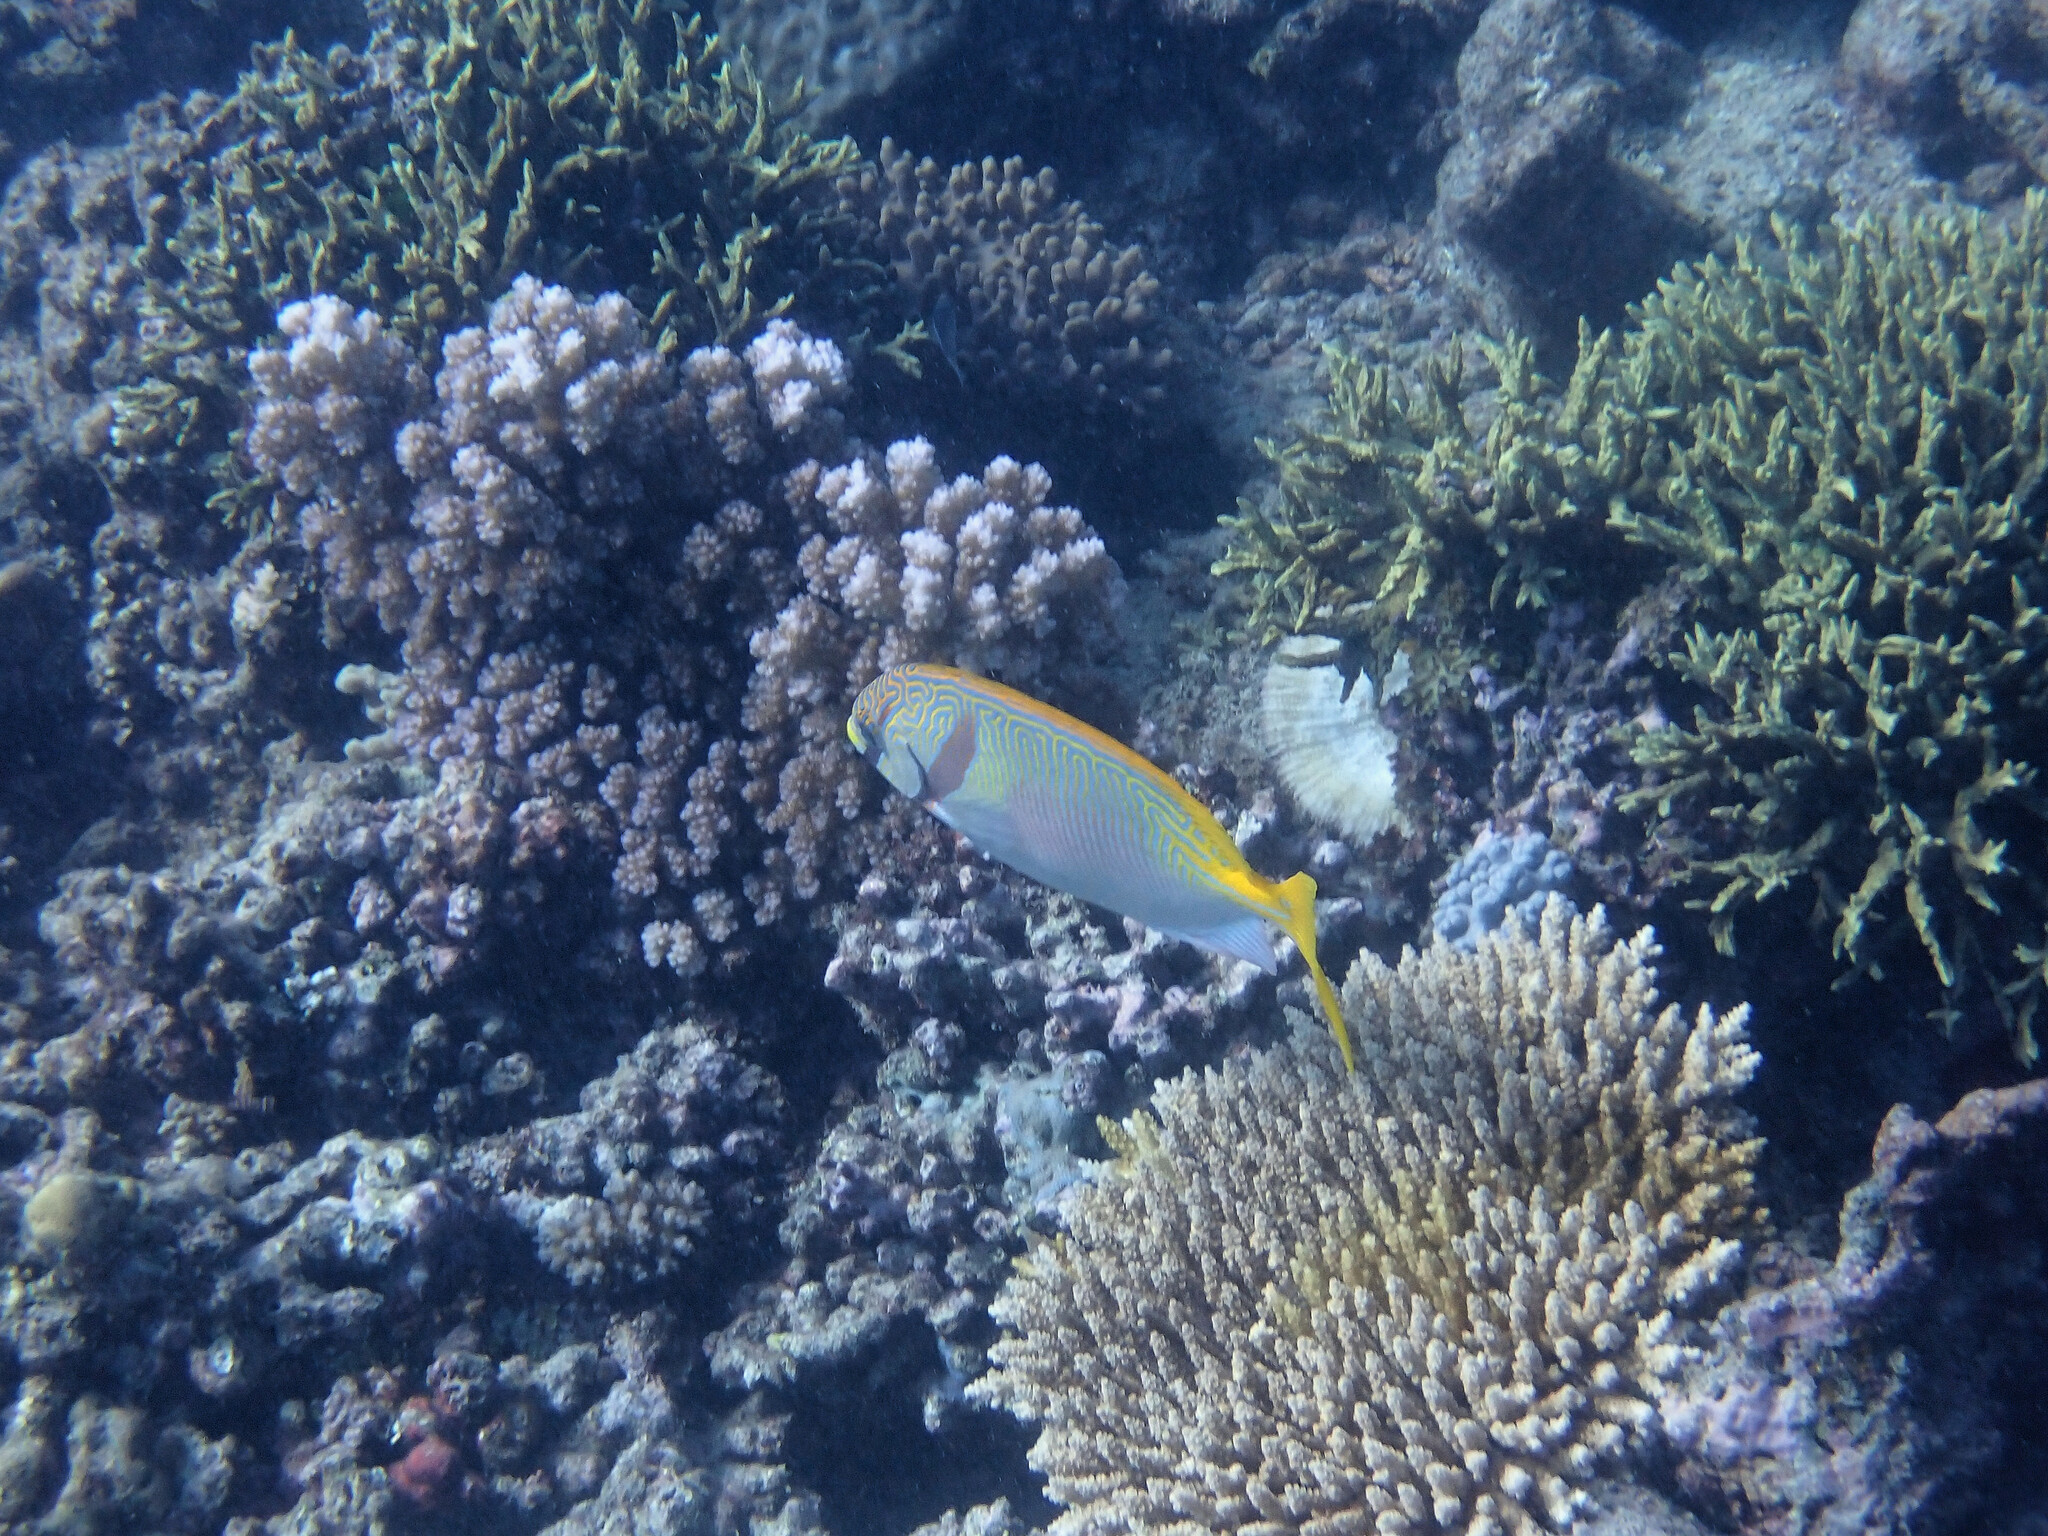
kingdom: Animalia
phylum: Chordata
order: Perciformes
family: Siganidae
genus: Siganus
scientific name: Siganus doliatus
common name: Barred spinefoot
